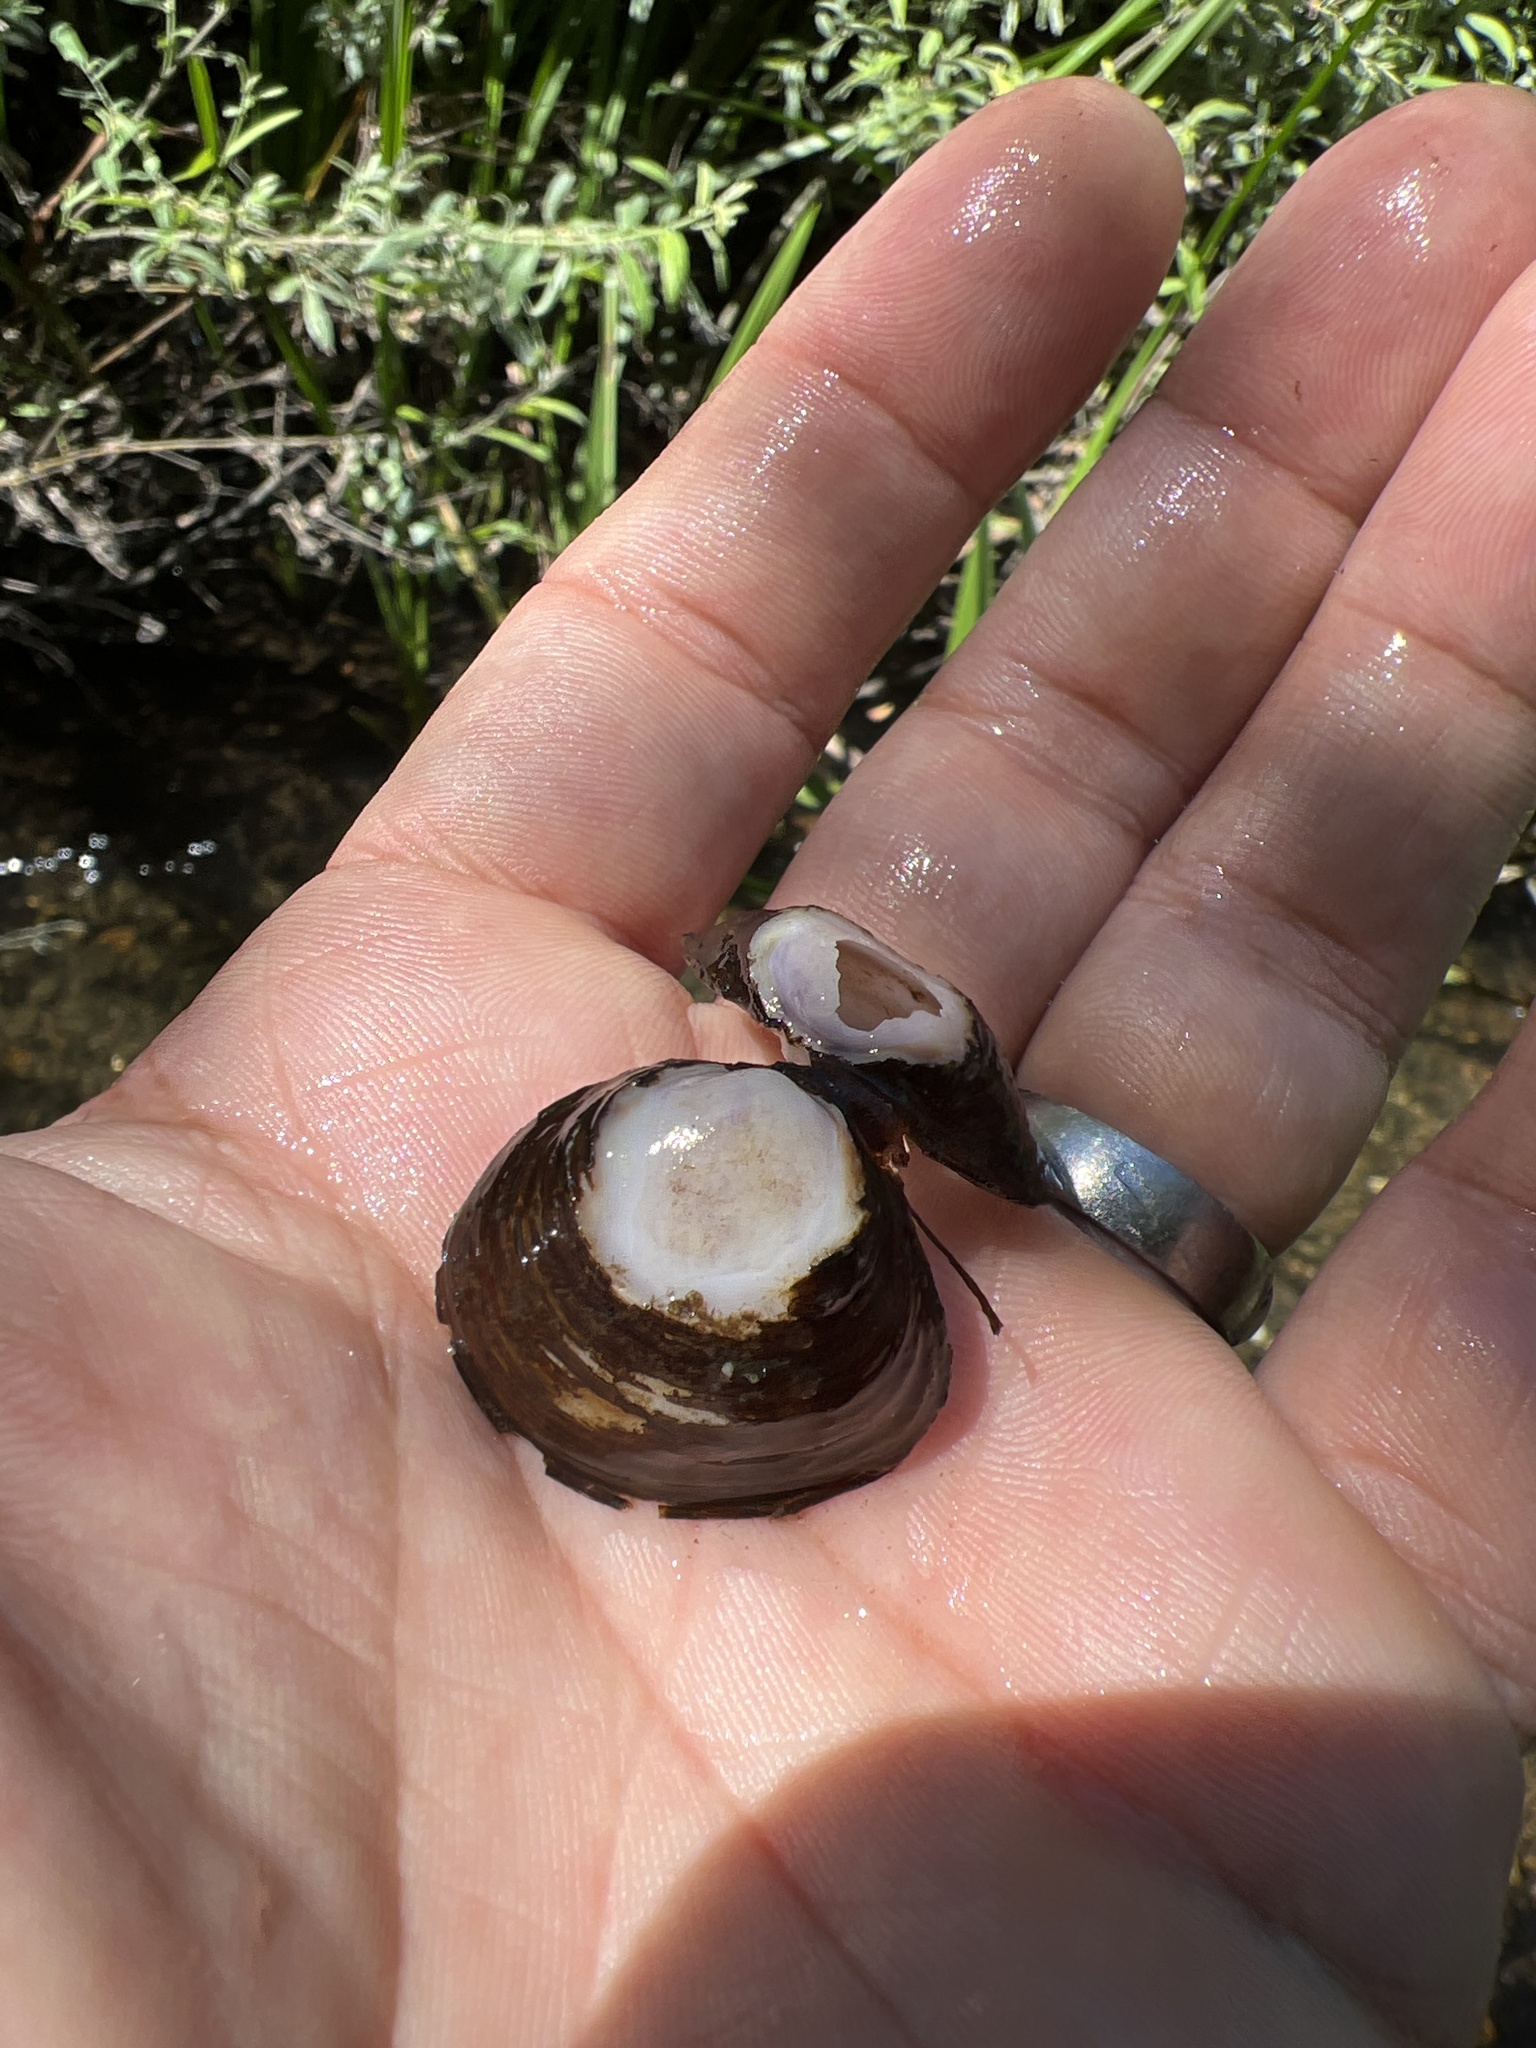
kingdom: Animalia
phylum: Mollusca
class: Bivalvia
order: Venerida
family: Cyrenidae
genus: Corbicula
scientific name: Corbicula fluminea
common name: Asian clam
